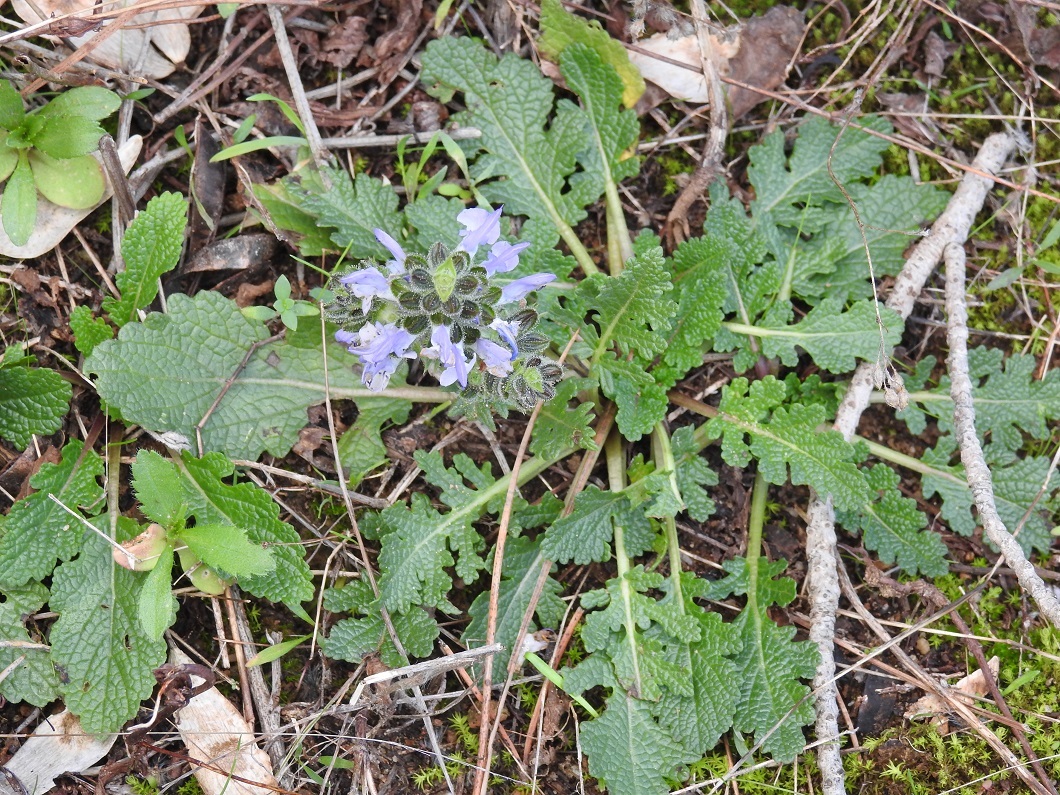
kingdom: Plantae
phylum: Tracheophyta
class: Magnoliopsida
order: Lamiales
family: Lamiaceae
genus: Salvia
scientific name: Salvia verbenaca
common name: Wild clary
